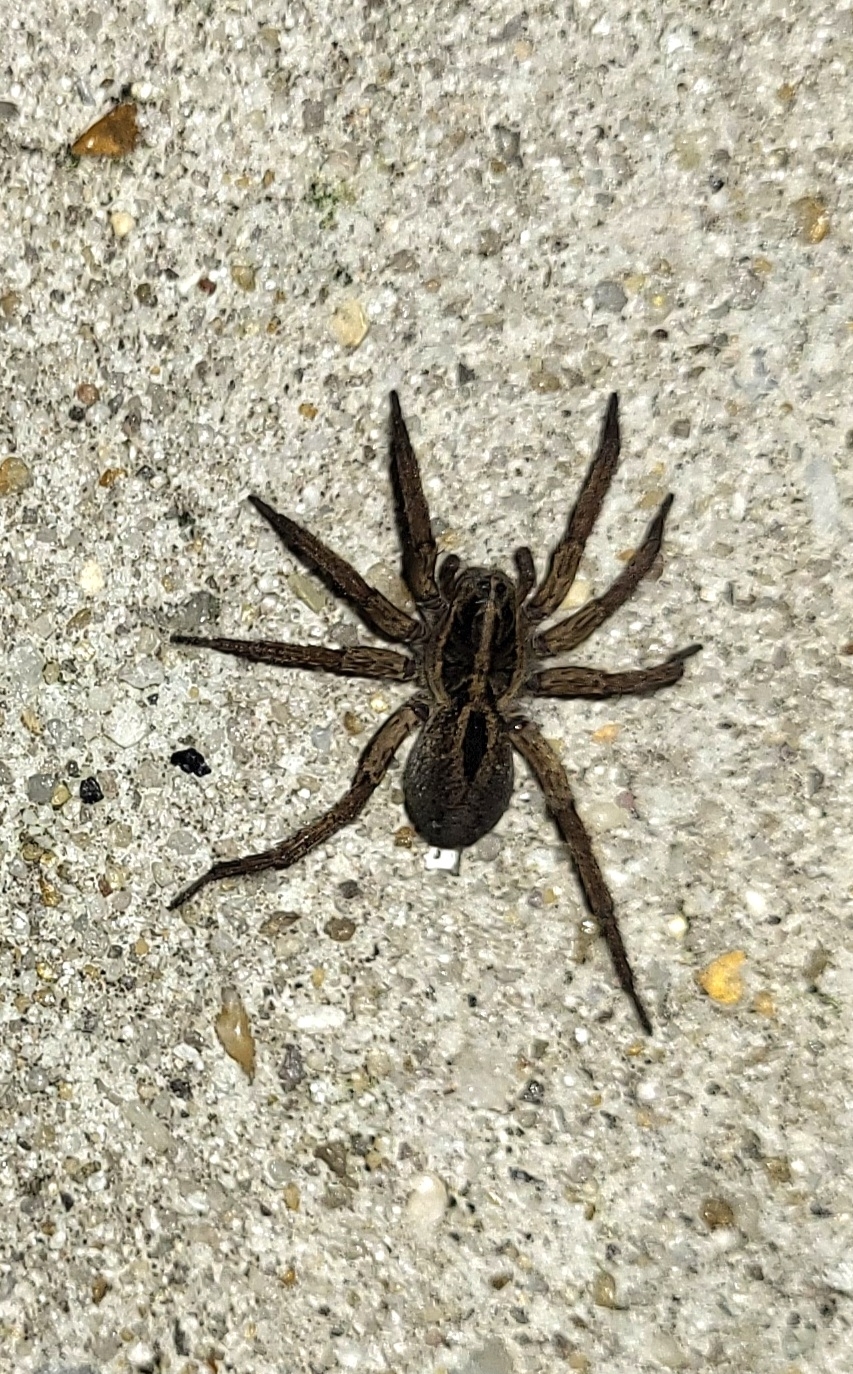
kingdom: Animalia
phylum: Arthropoda
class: Arachnida
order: Araneae
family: Lycosidae
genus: Tigrosa
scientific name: Tigrosa annexa
